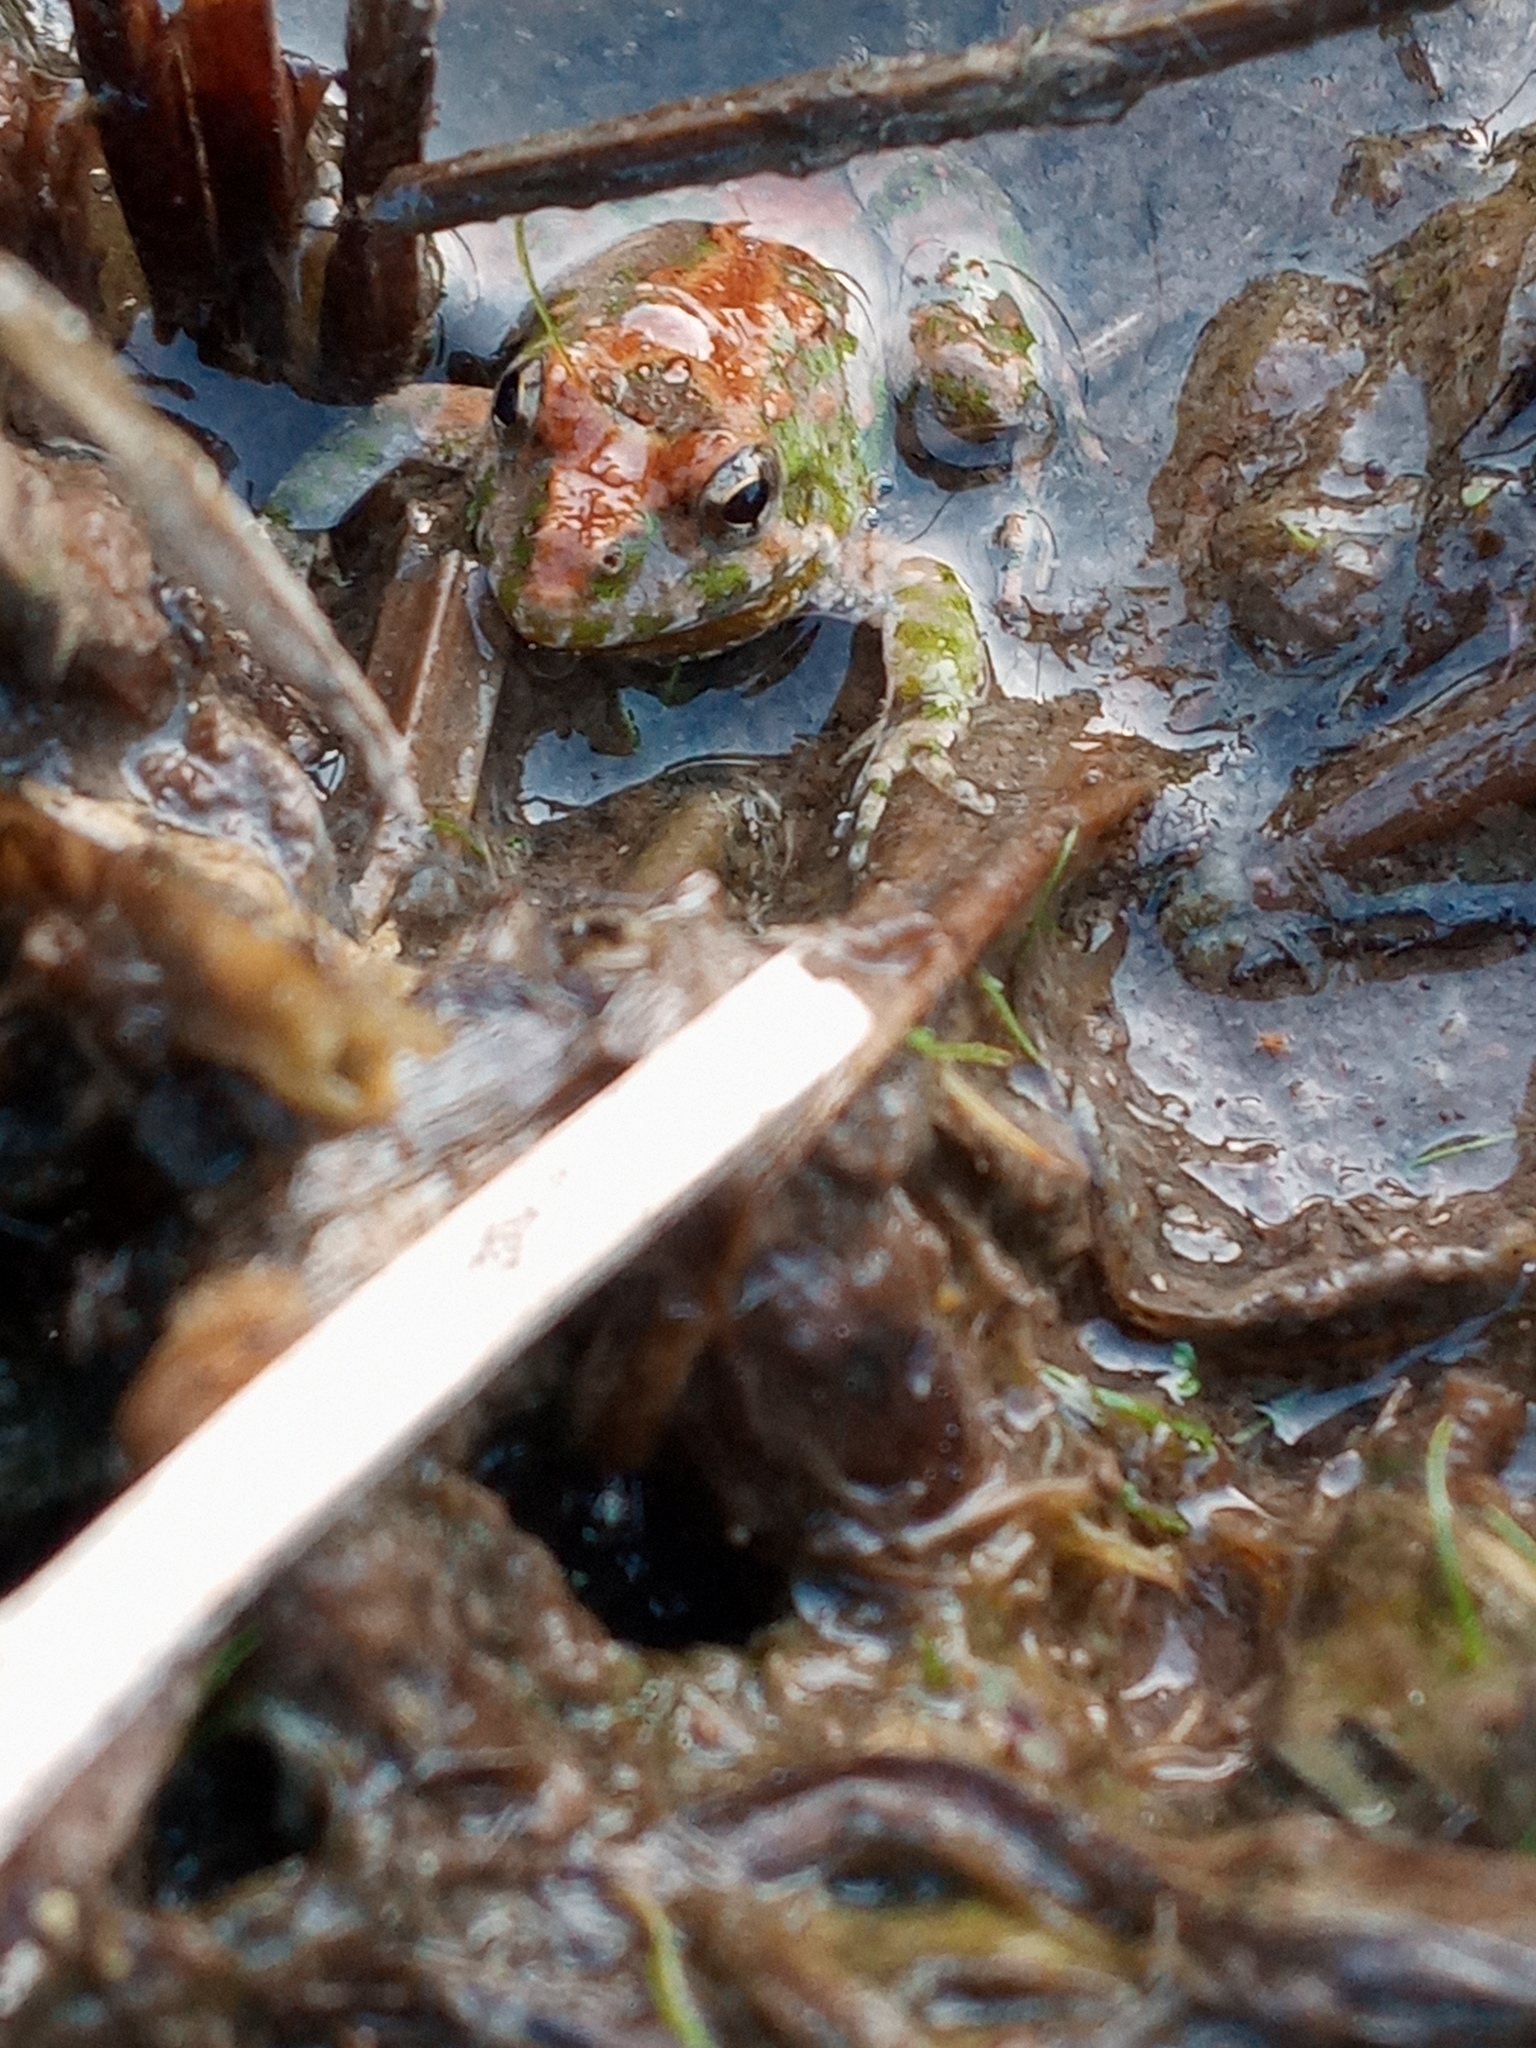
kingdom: Animalia
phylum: Chordata
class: Amphibia
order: Anura
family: Hylidae
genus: Acris
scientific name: Acris blanchardi
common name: Blanchard's cricket frog
